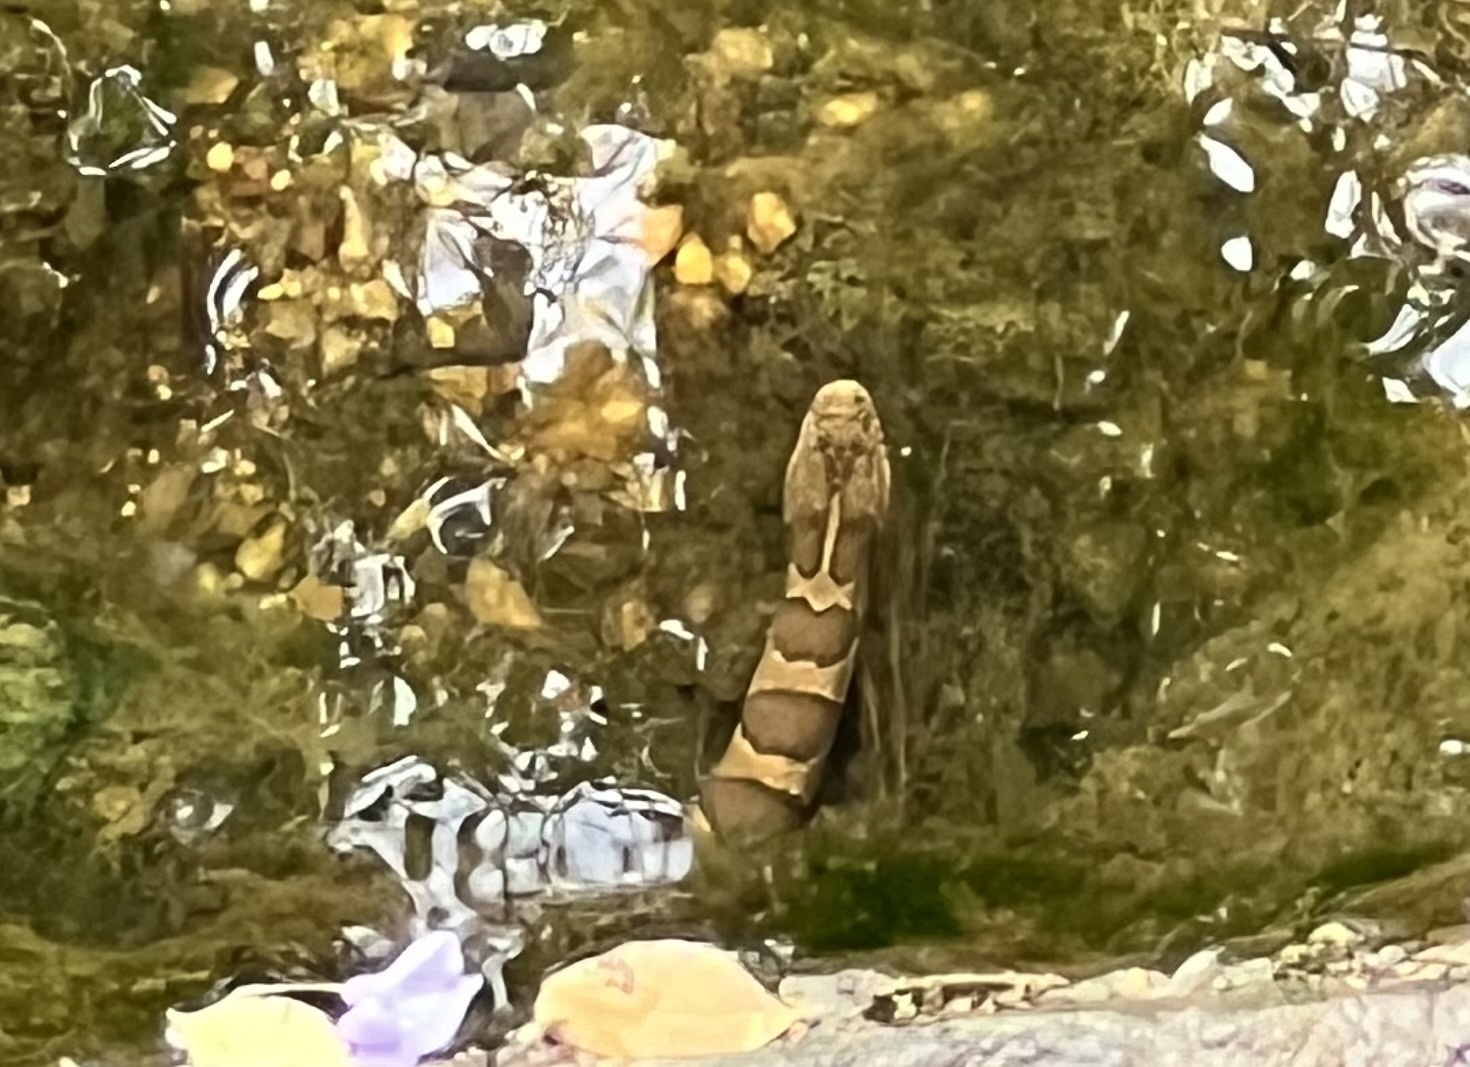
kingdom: Animalia
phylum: Chordata
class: Squamata
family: Colubridae
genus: Nerodia
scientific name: Nerodia sipedon
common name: Northern water snake
